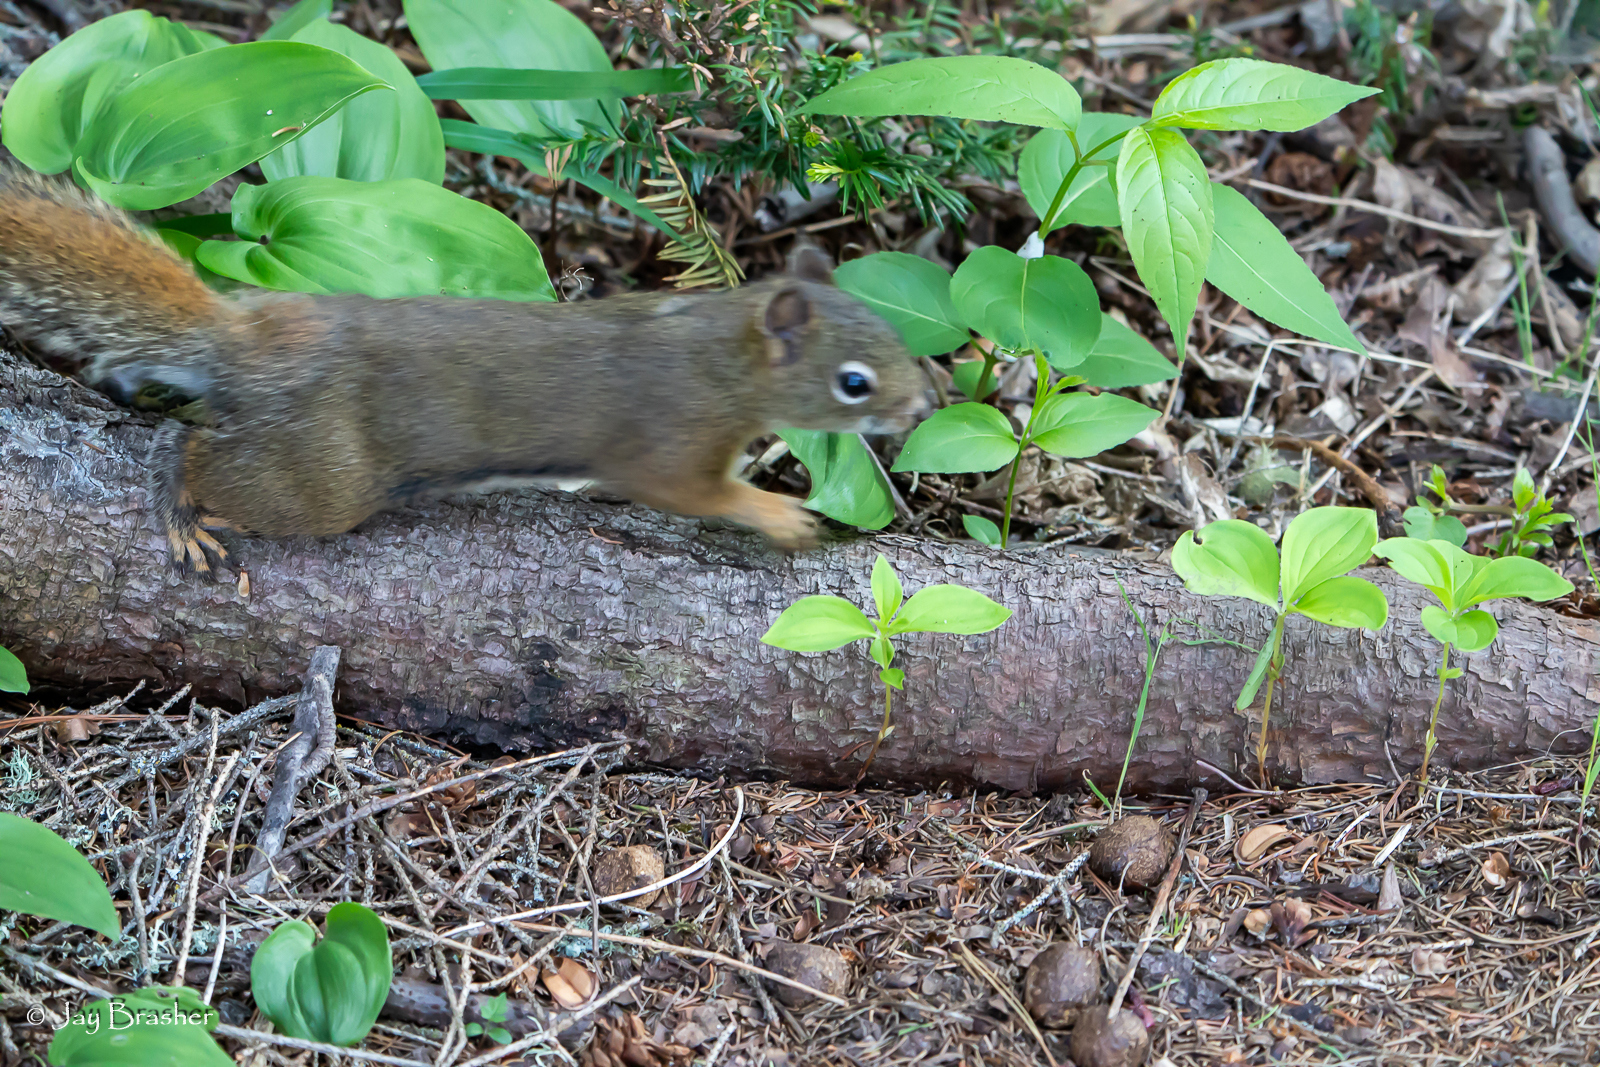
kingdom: Animalia
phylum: Chordata
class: Mammalia
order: Rodentia
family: Sciuridae
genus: Tamiasciurus
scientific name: Tamiasciurus hudsonicus
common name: Red squirrel
